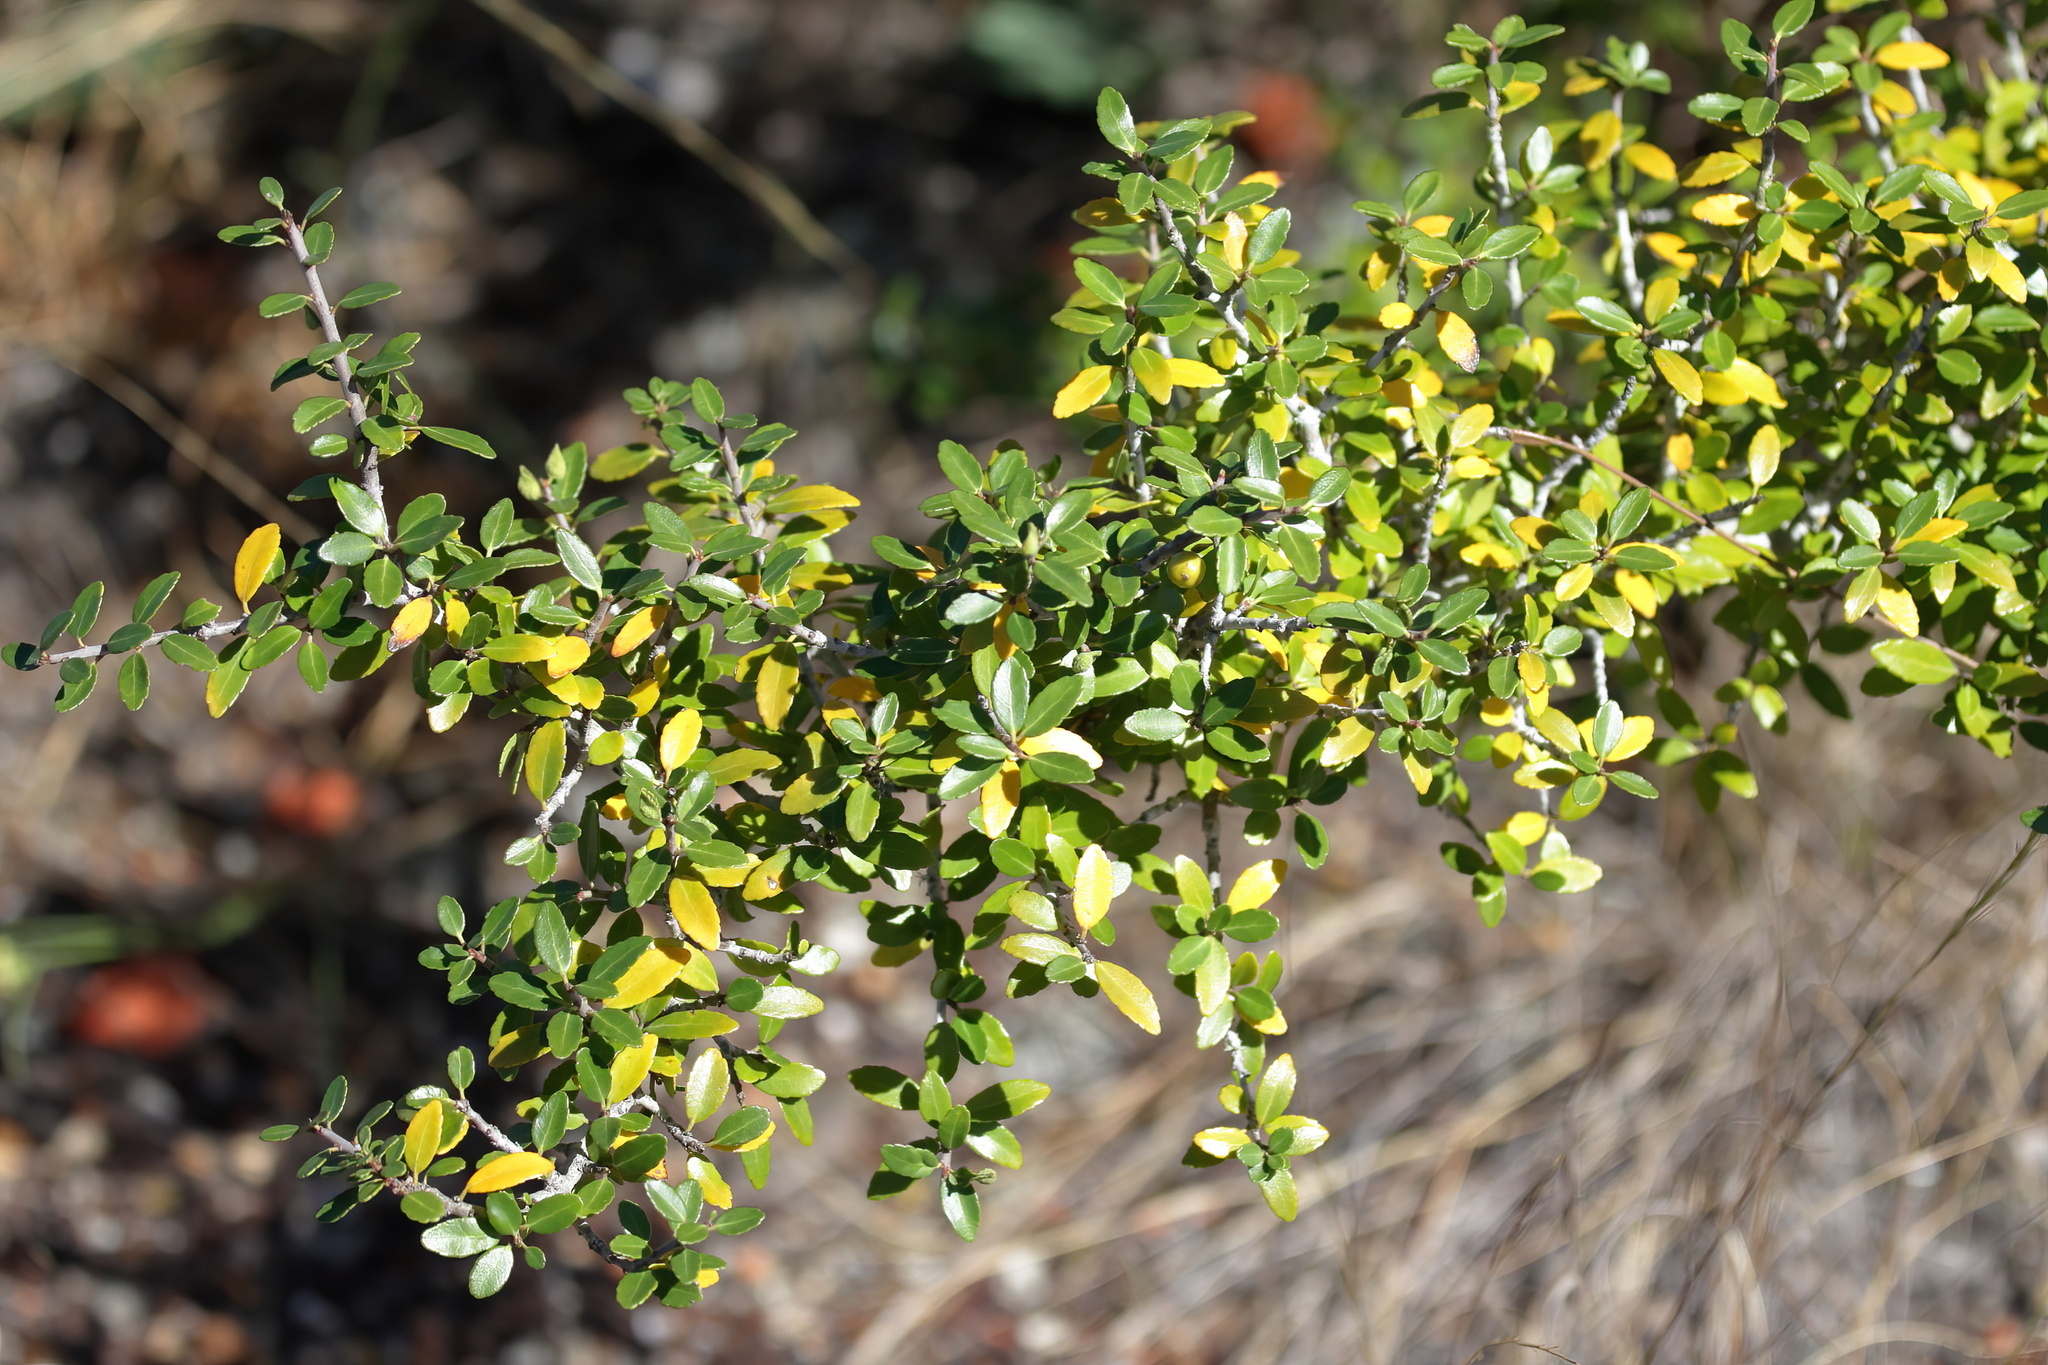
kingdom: Plantae
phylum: Tracheophyta
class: Magnoliopsida
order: Aquifoliales
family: Aquifoliaceae
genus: Ilex
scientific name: Ilex vomitoria
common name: Yaupon holly
